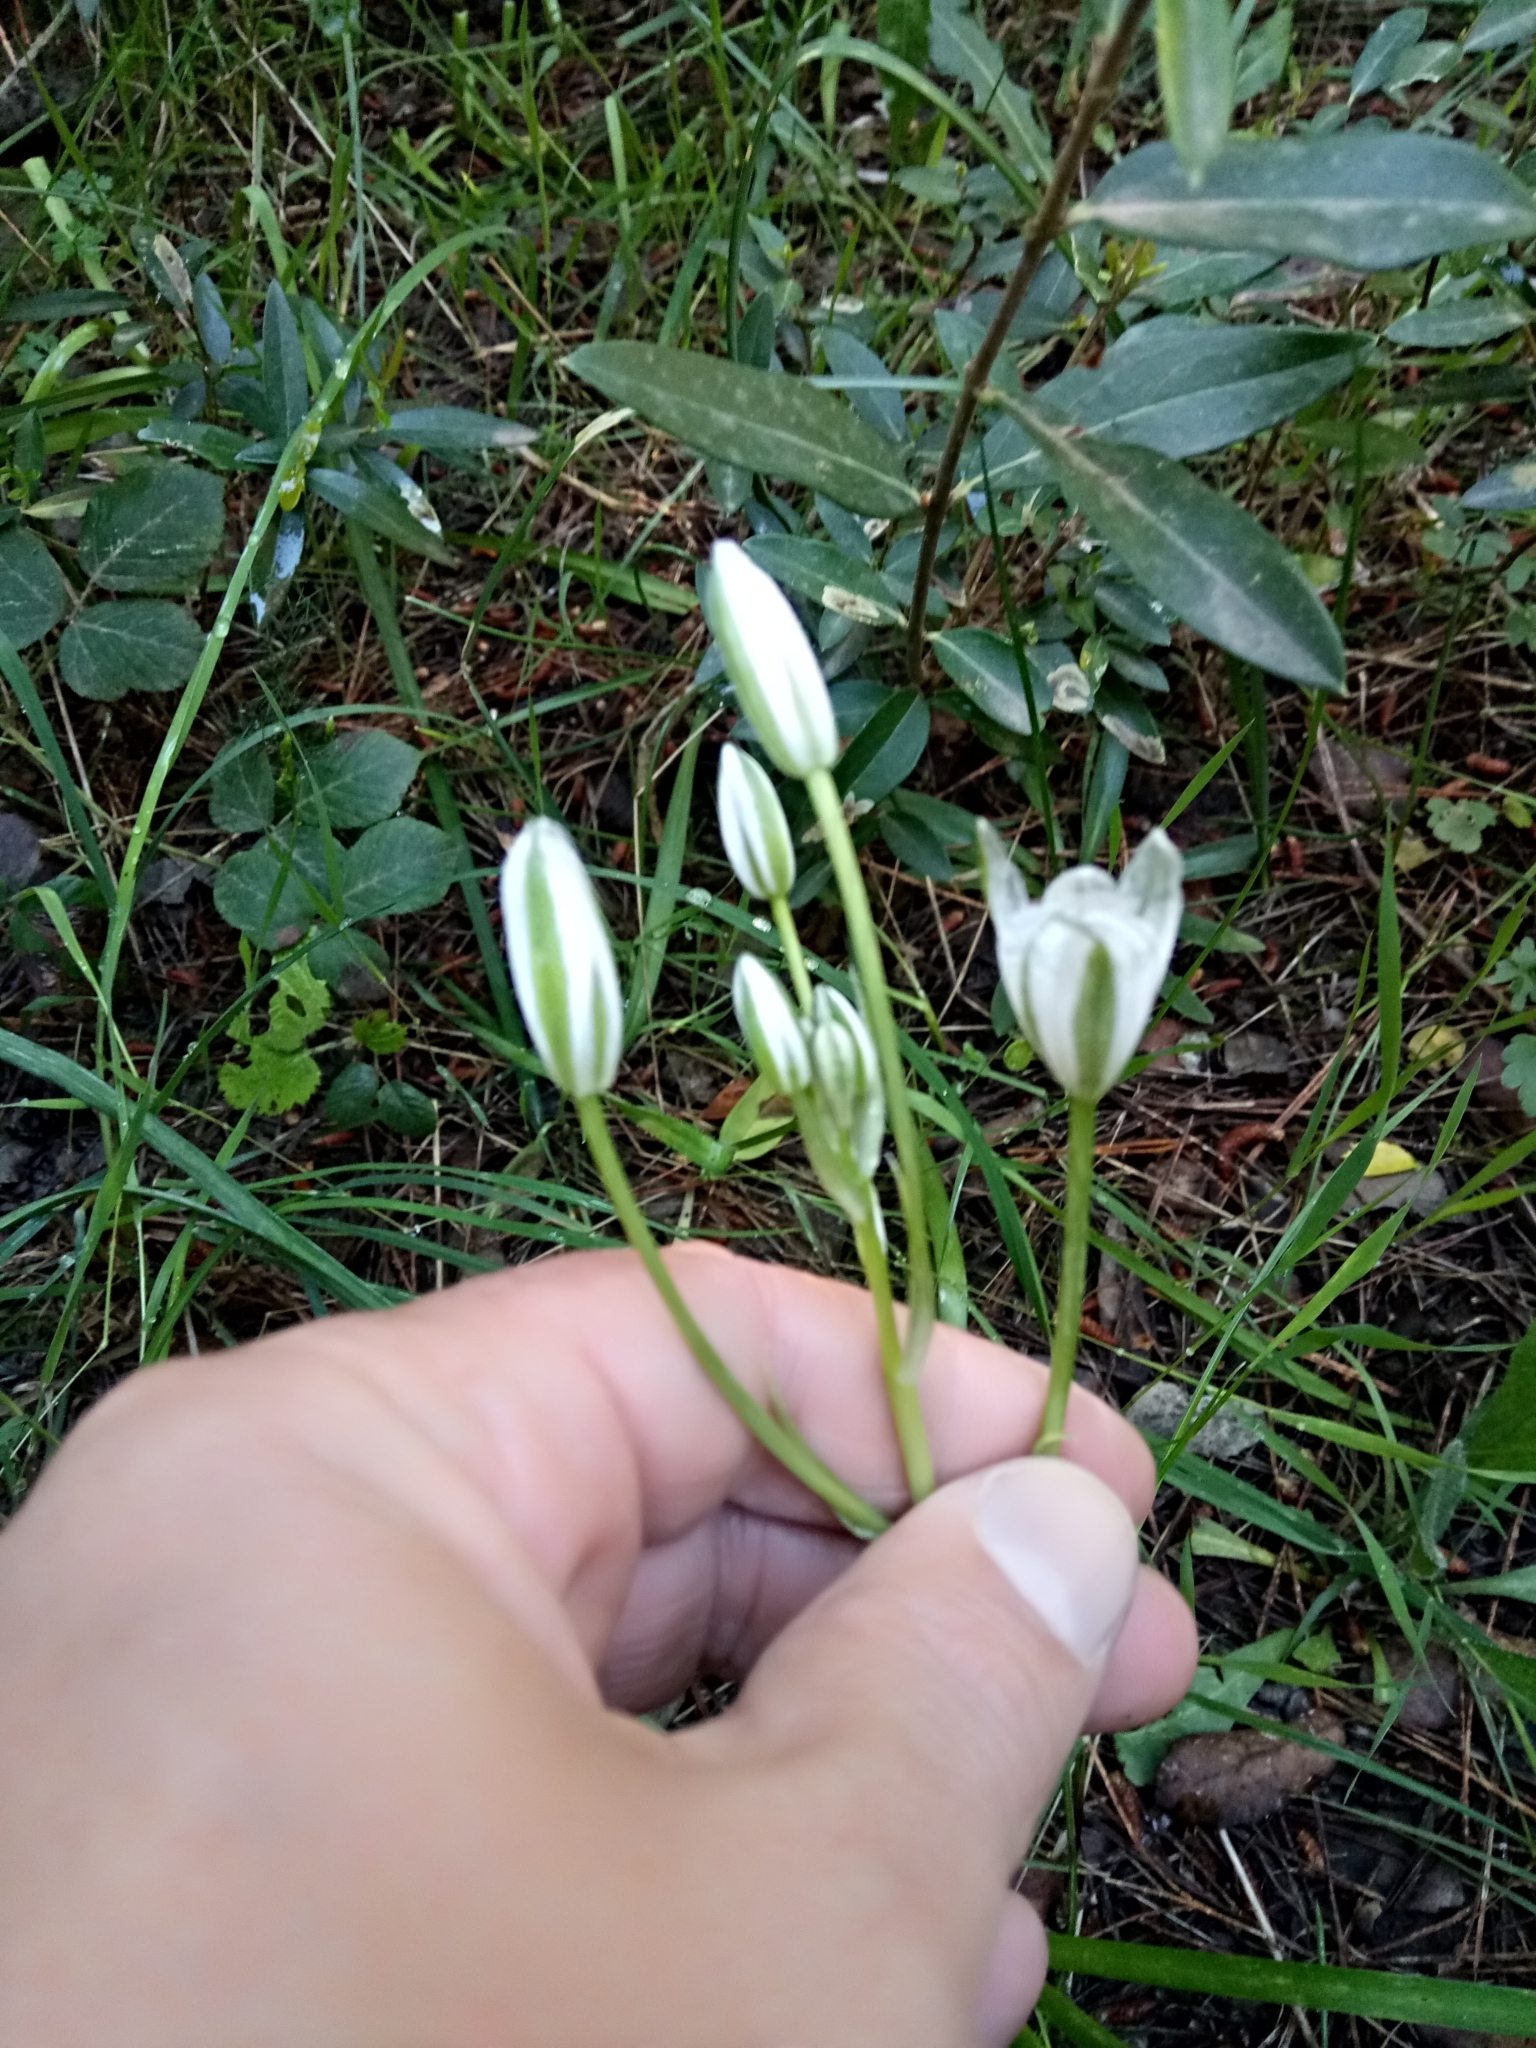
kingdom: Plantae
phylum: Tracheophyta
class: Liliopsida
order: Asparagales
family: Asparagaceae
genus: Ornithogalum
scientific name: Ornithogalum baeticum
